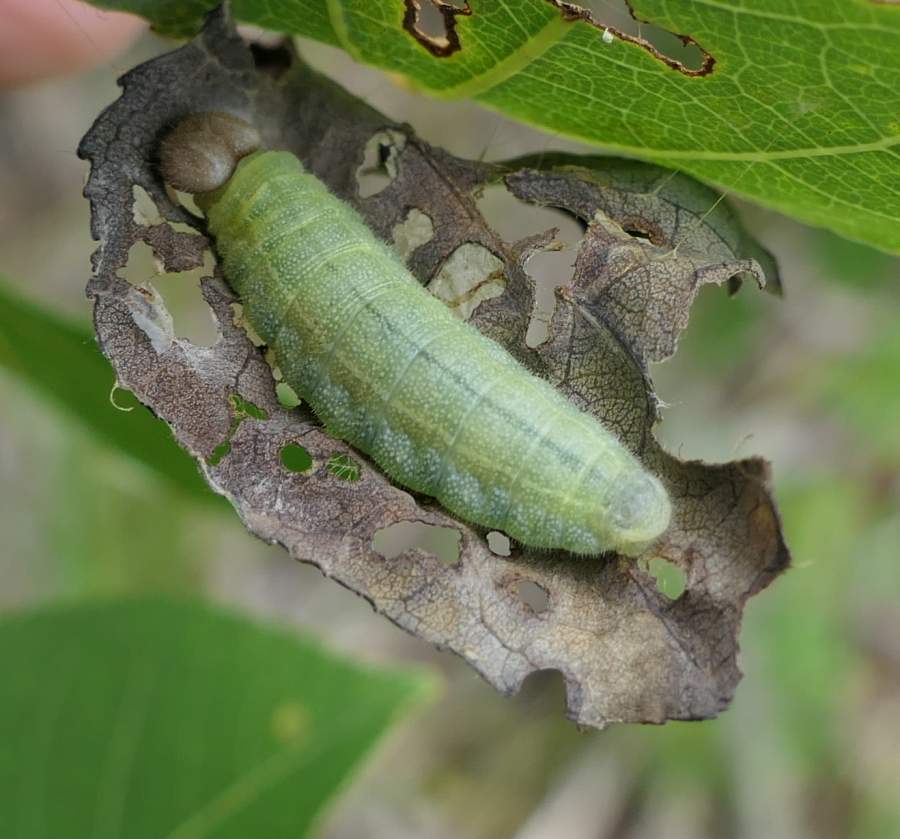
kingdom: Animalia
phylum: Arthropoda
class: Insecta
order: Lepidoptera
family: Hesperiidae
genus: Erynnis
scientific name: Erynnis icelus
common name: Dreamy duskywing
